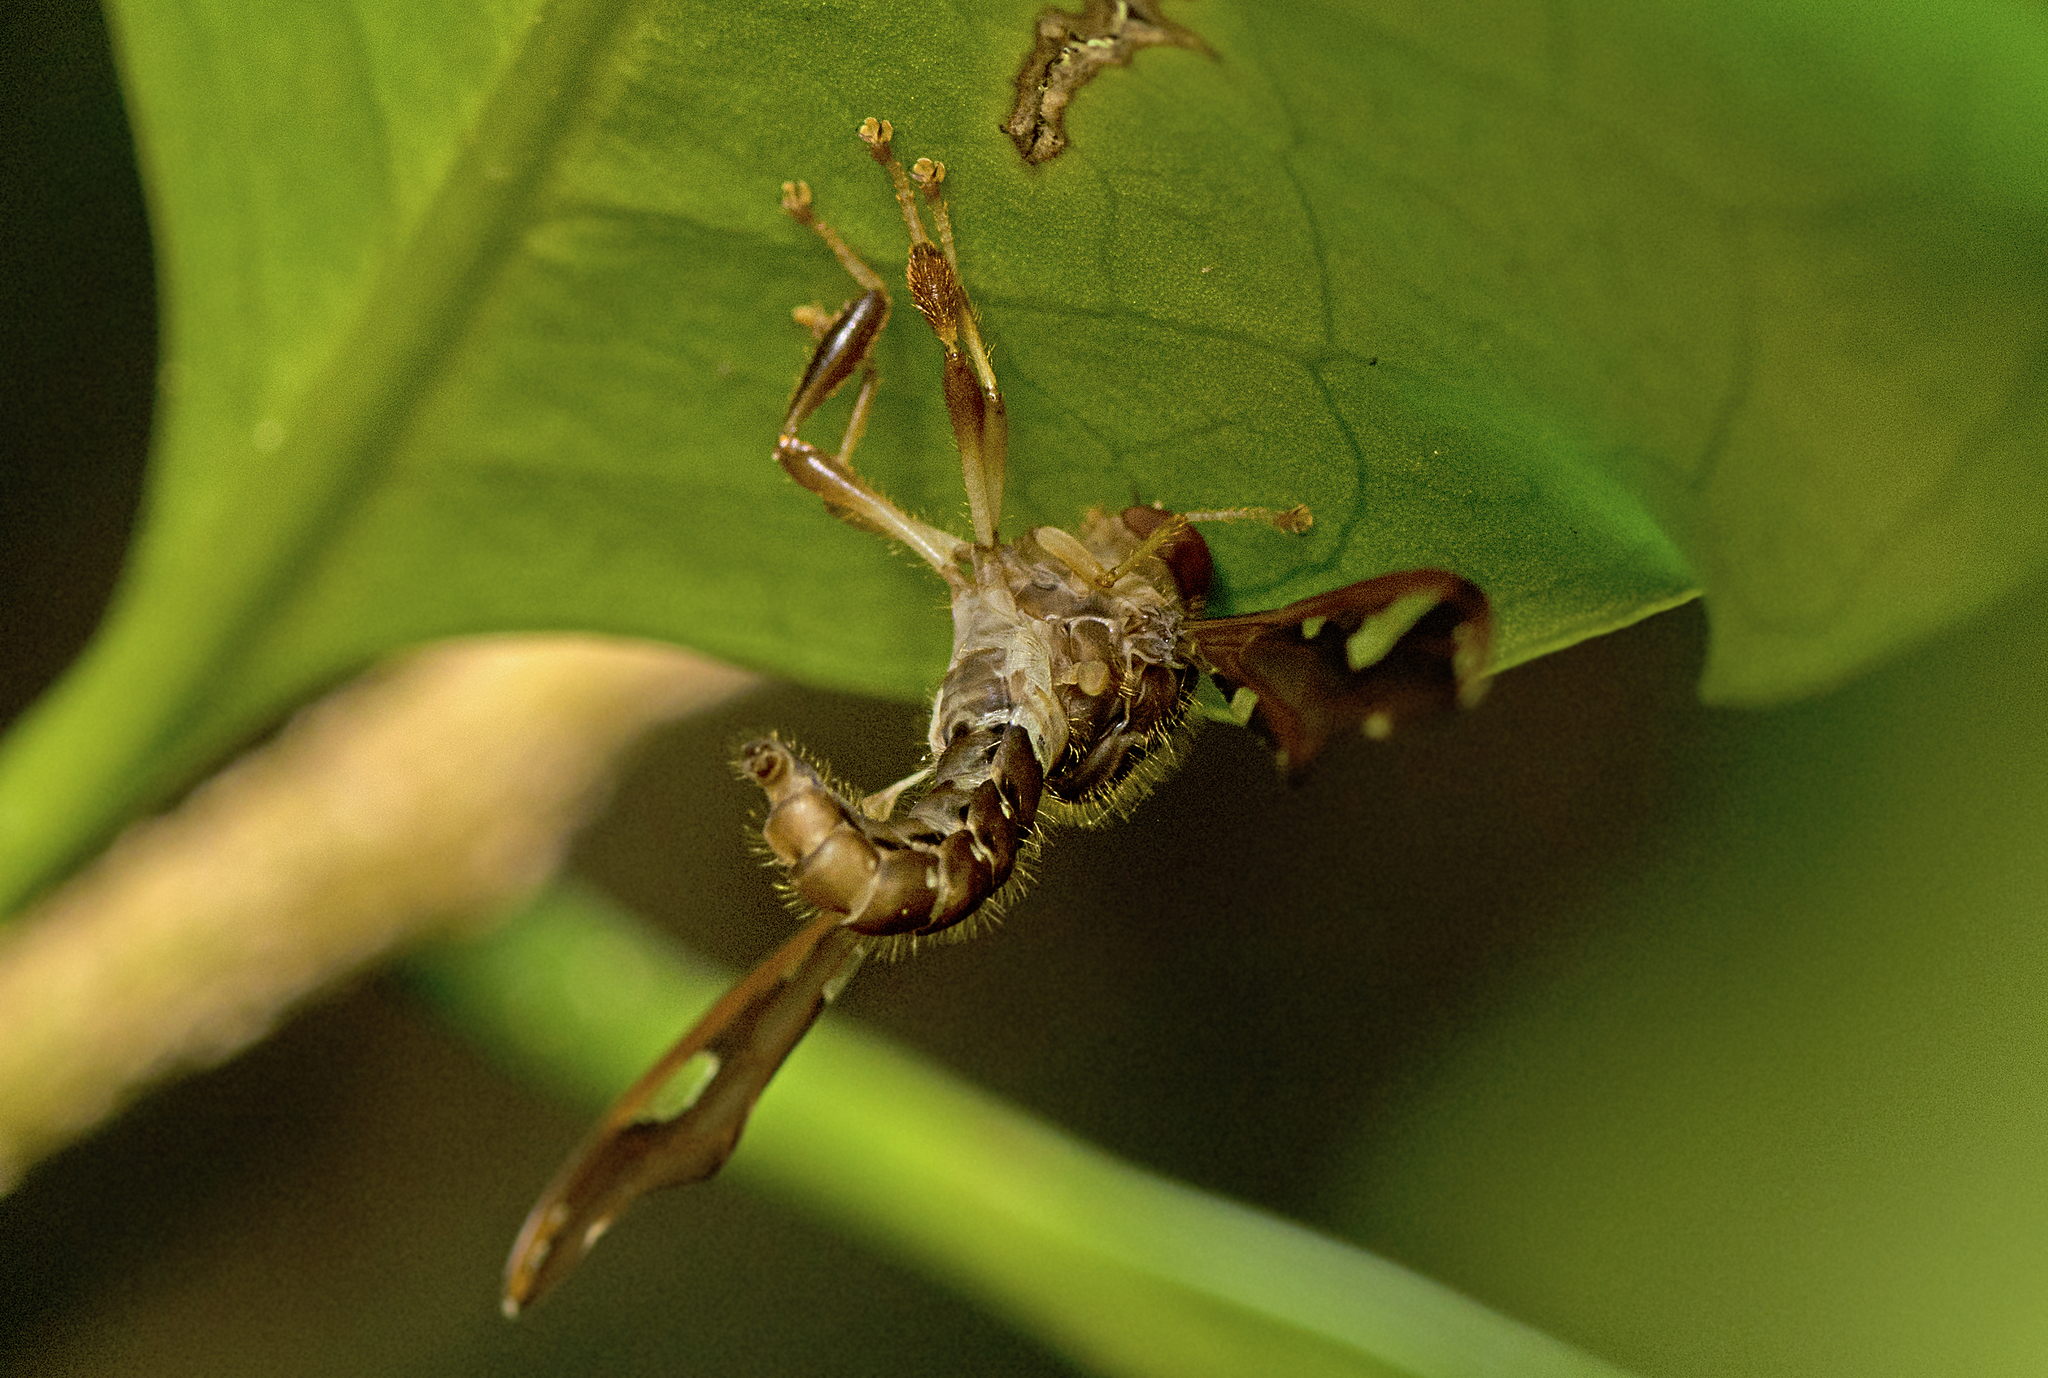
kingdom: Animalia
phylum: Arthropoda
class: Insecta
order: Diptera
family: Nemestrinidae
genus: Nycterimorpha
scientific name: Nycterimorpha speiseri
